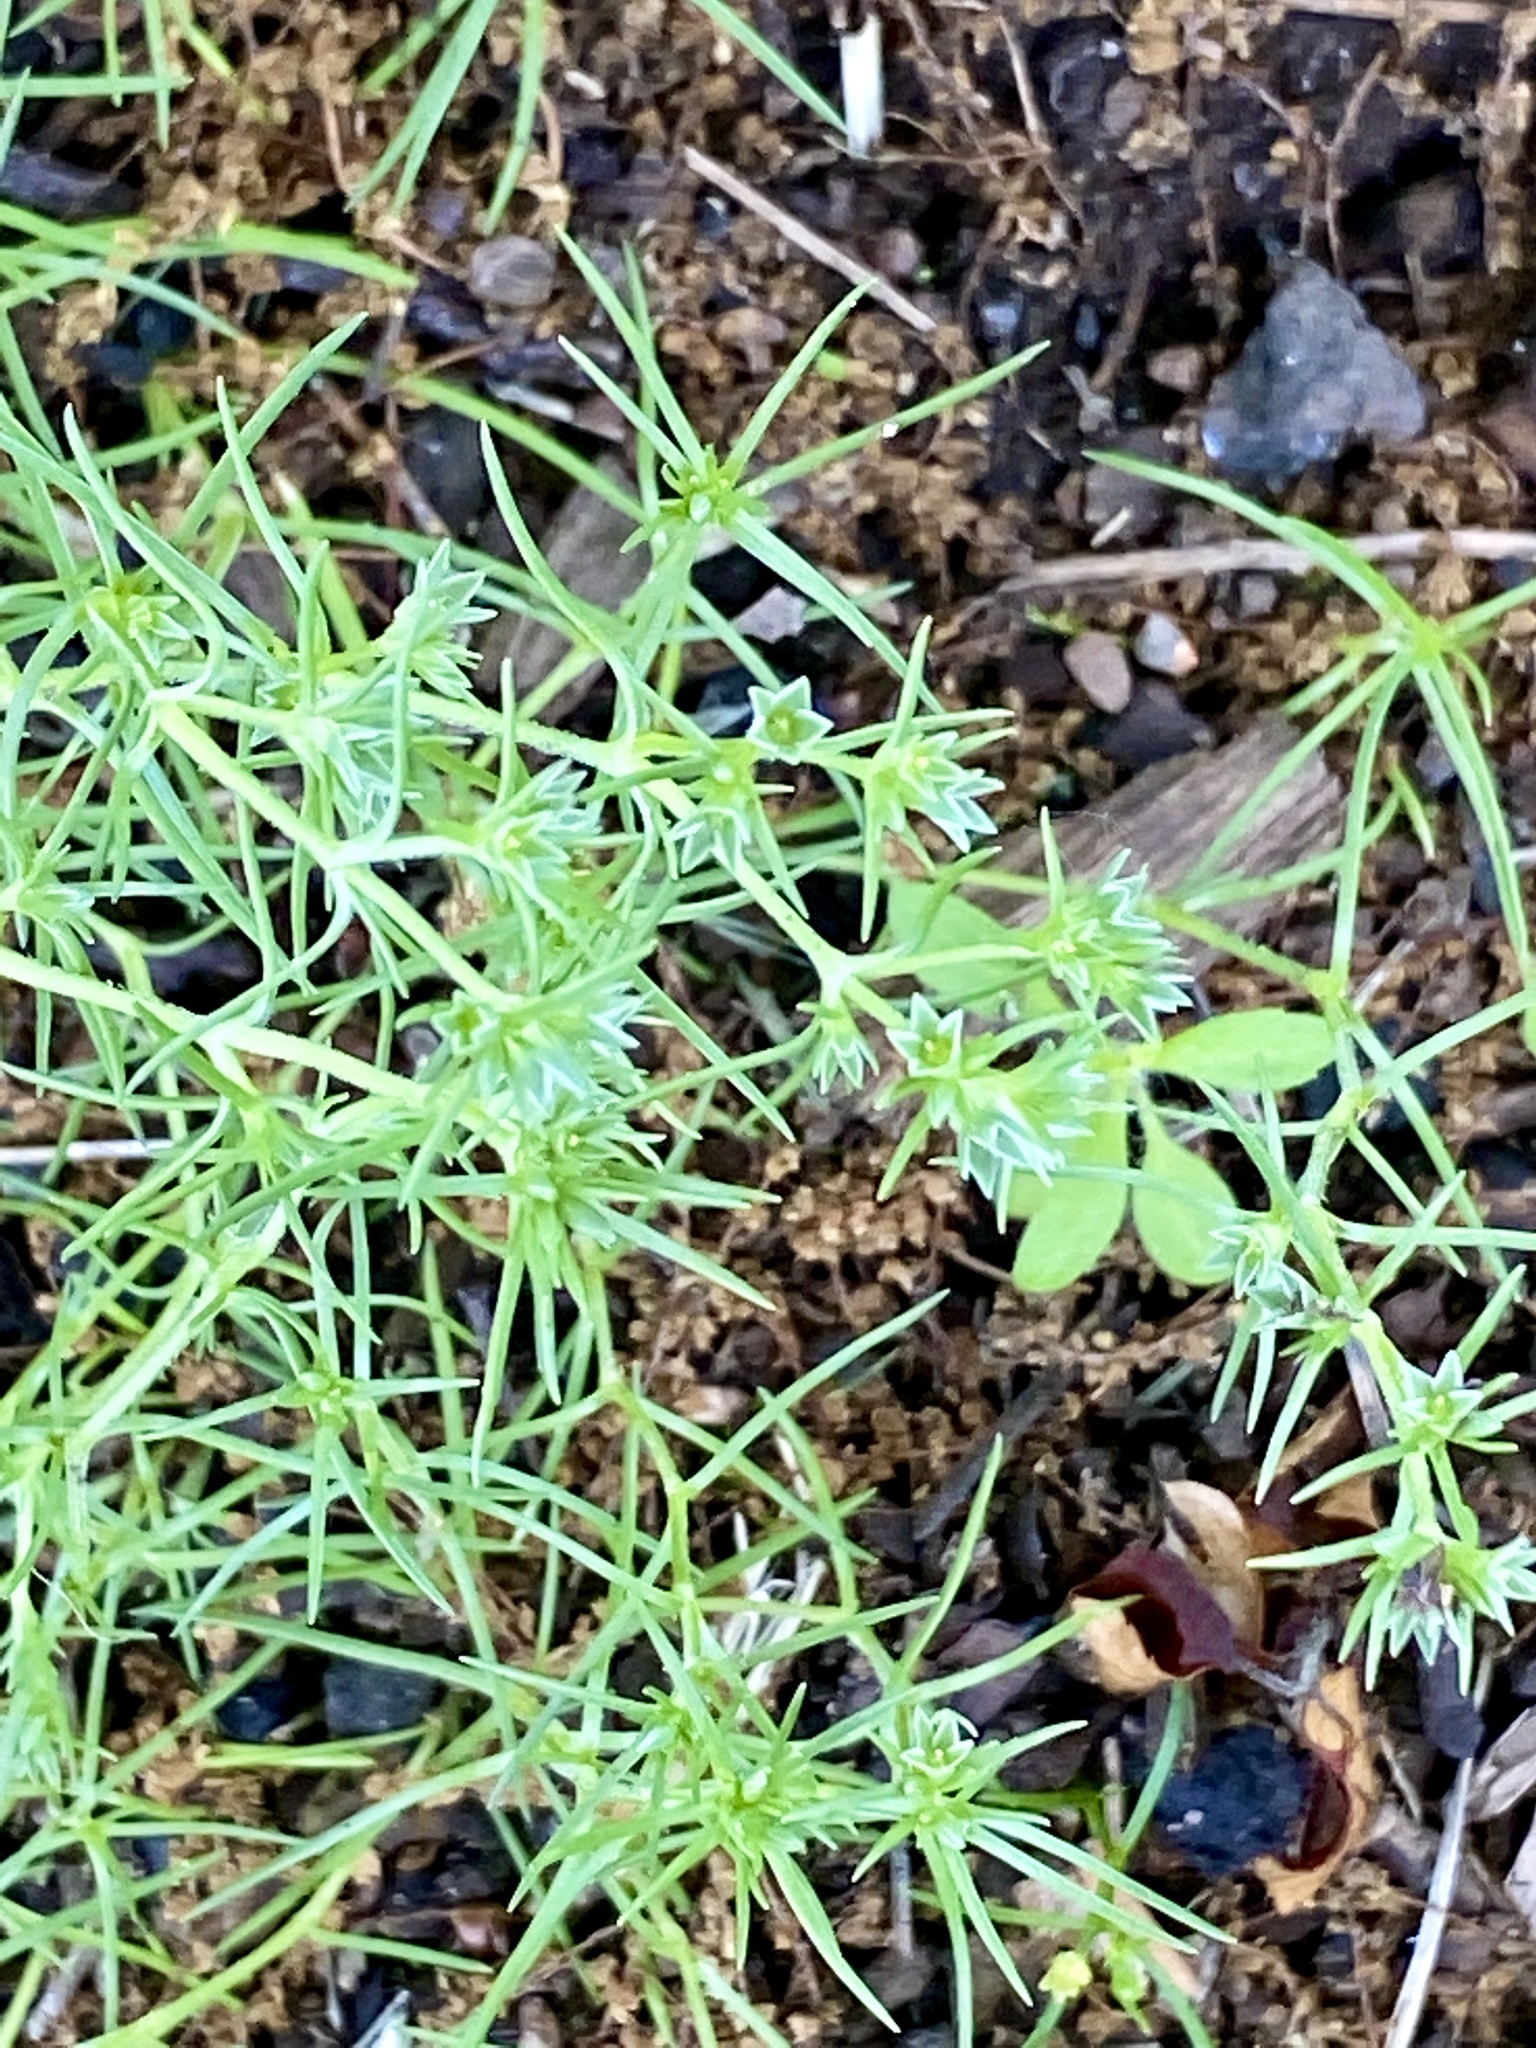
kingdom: Plantae
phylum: Tracheophyta
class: Magnoliopsida
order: Caryophyllales
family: Caryophyllaceae
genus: Scleranthus
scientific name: Scleranthus annuus
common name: Annual knawel
